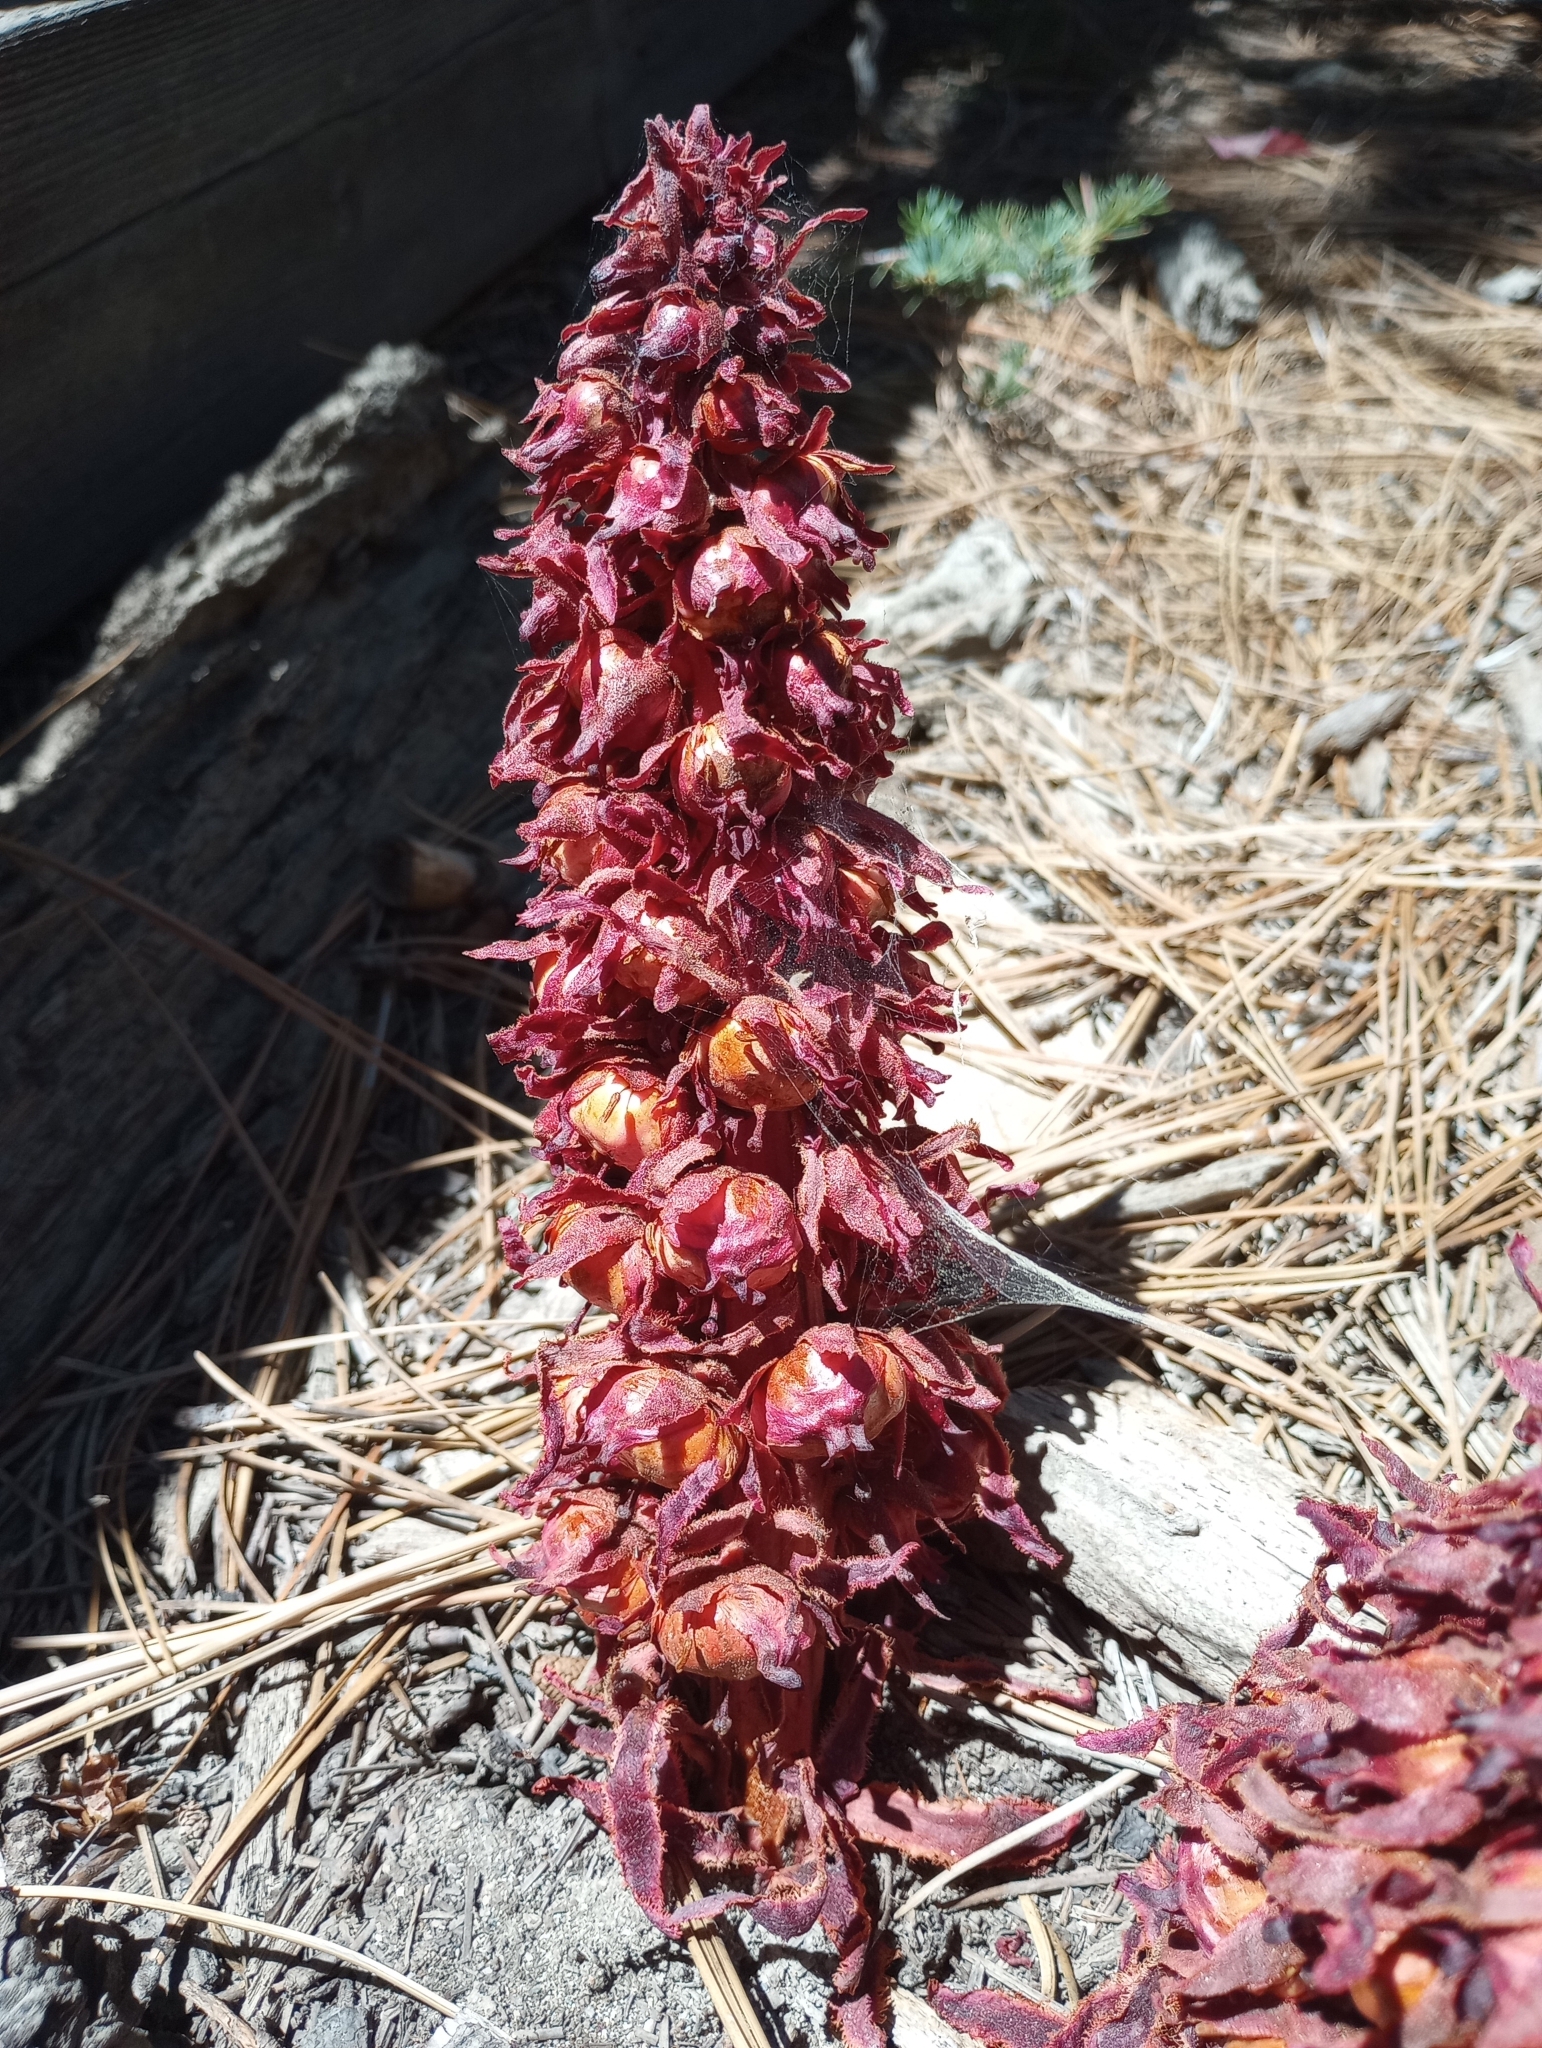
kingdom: Plantae
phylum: Tracheophyta
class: Magnoliopsida
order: Ericales
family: Ericaceae
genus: Sarcodes
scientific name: Sarcodes sanguinea
